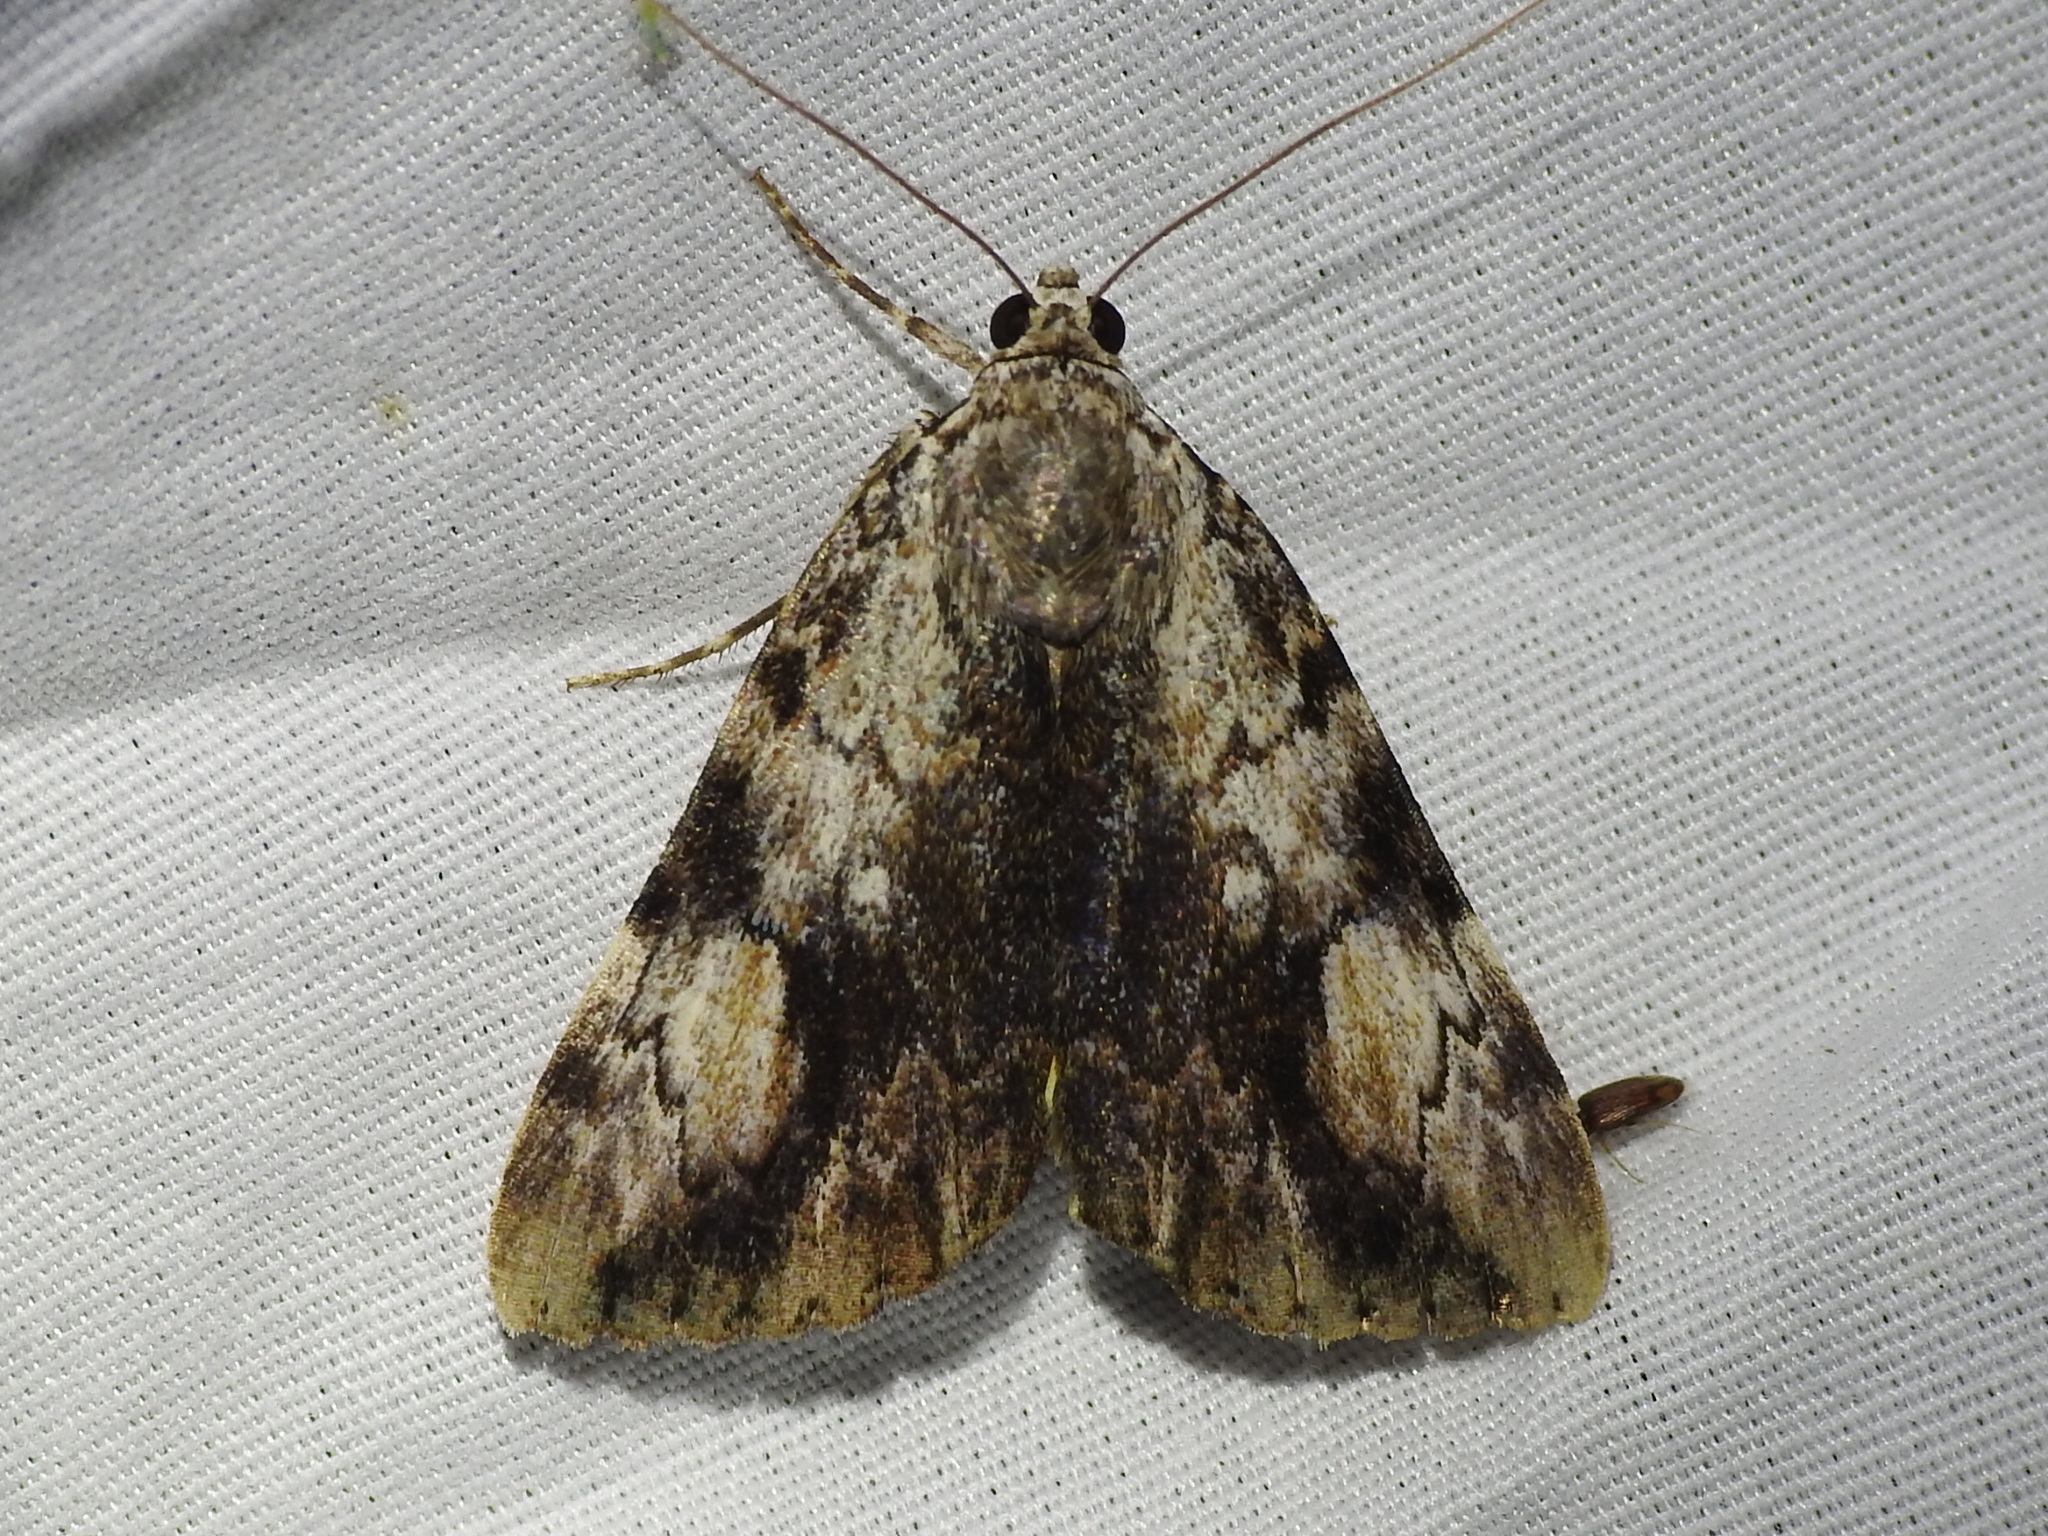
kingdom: Animalia
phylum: Arthropoda
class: Insecta
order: Lepidoptera
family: Erebidae
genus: Catocala
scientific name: Catocala amica
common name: Girlfriend underwing
